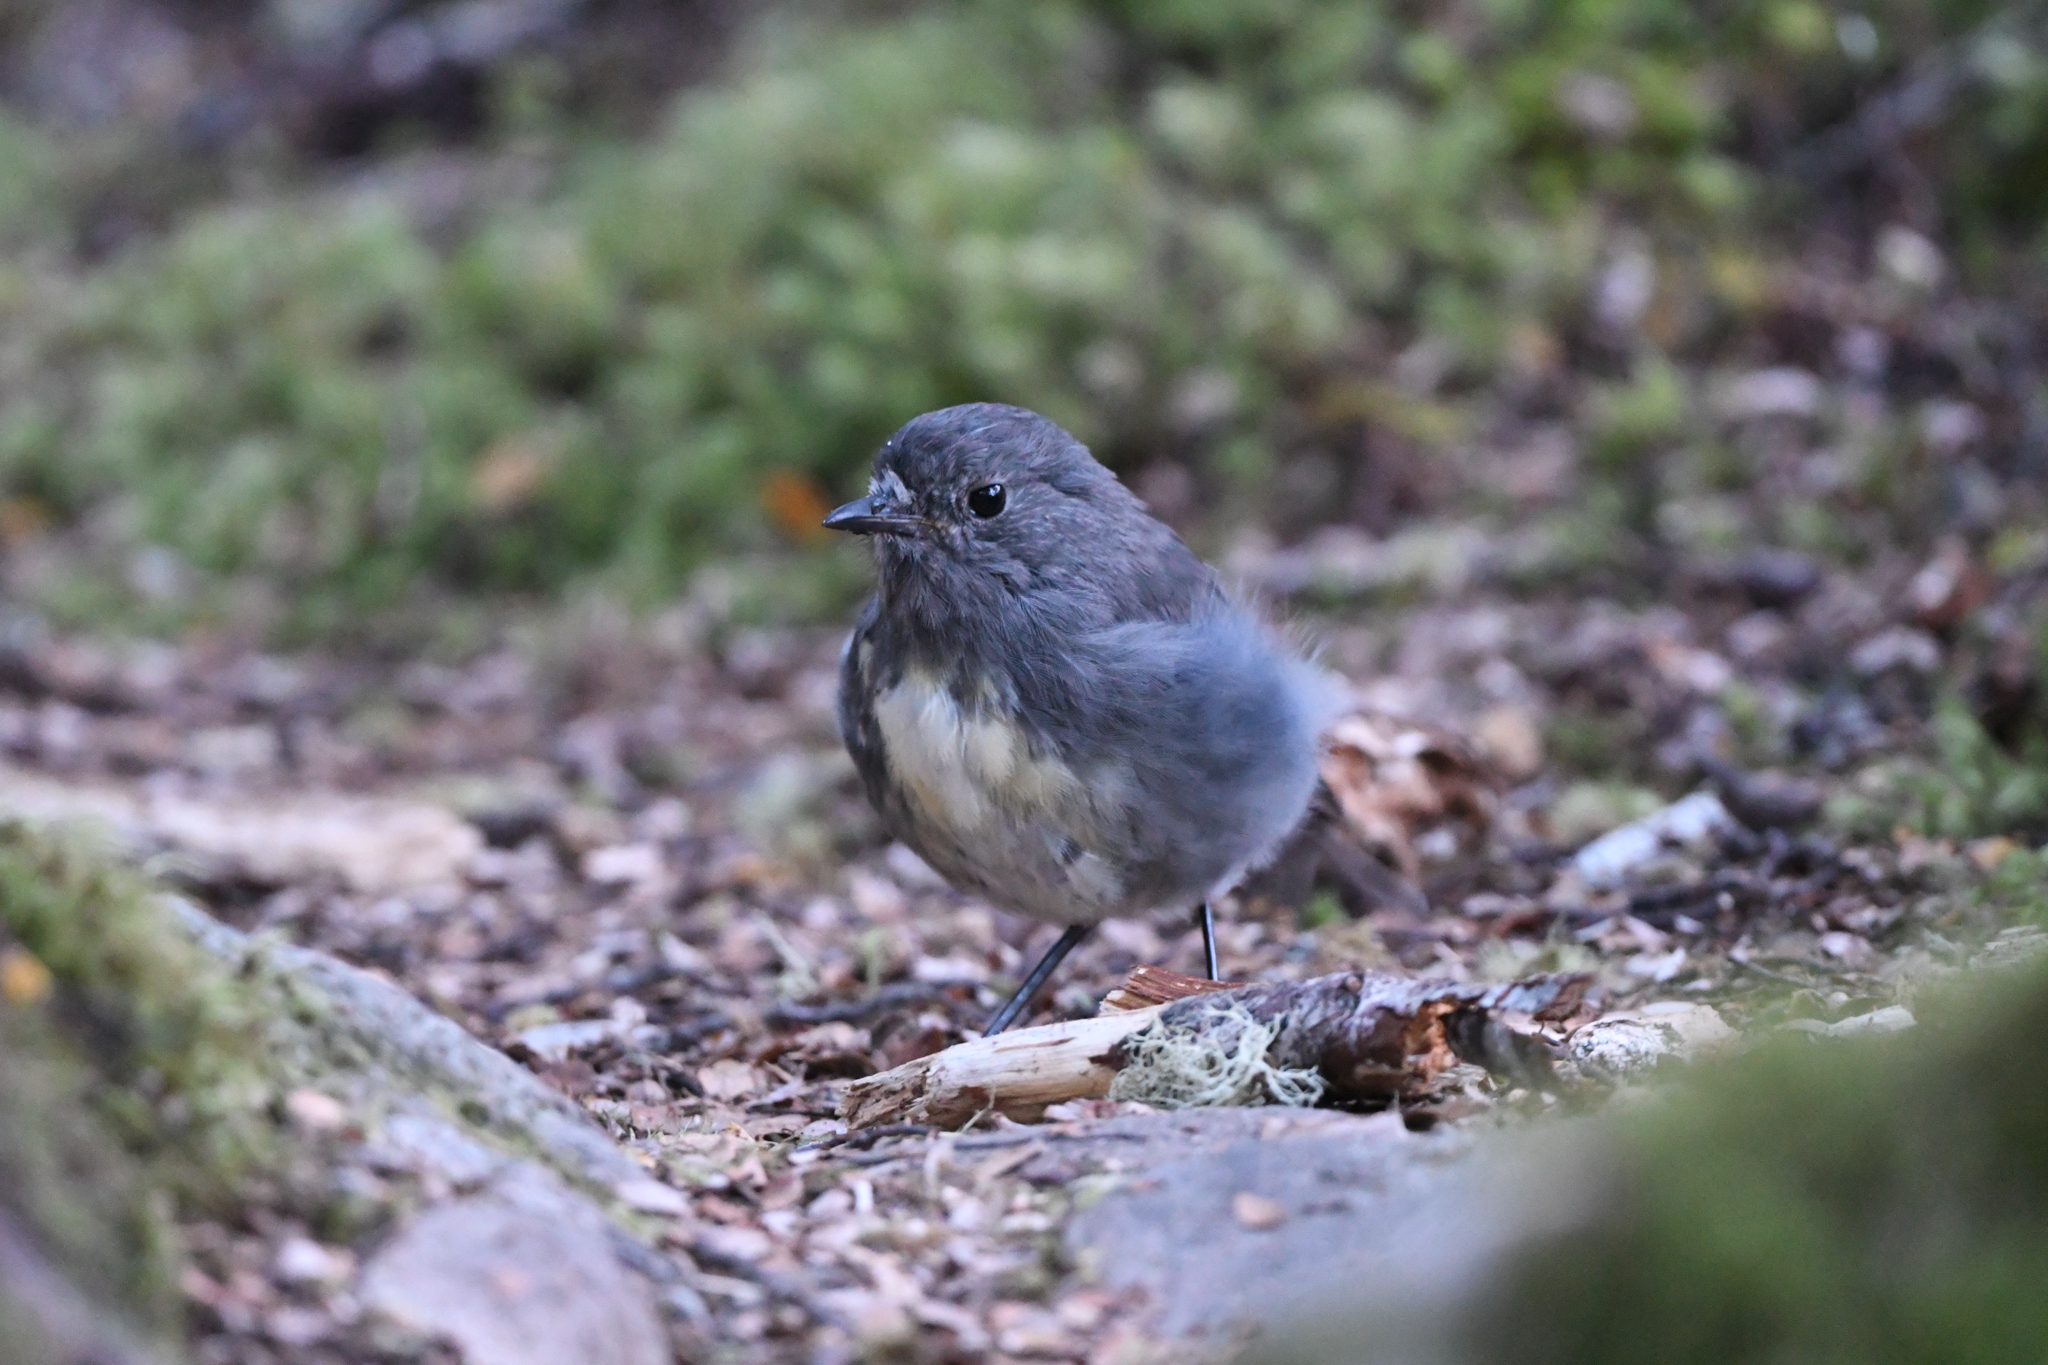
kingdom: Animalia
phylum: Chordata
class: Aves
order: Passeriformes
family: Petroicidae
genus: Petroica
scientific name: Petroica australis
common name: New zealand robin
